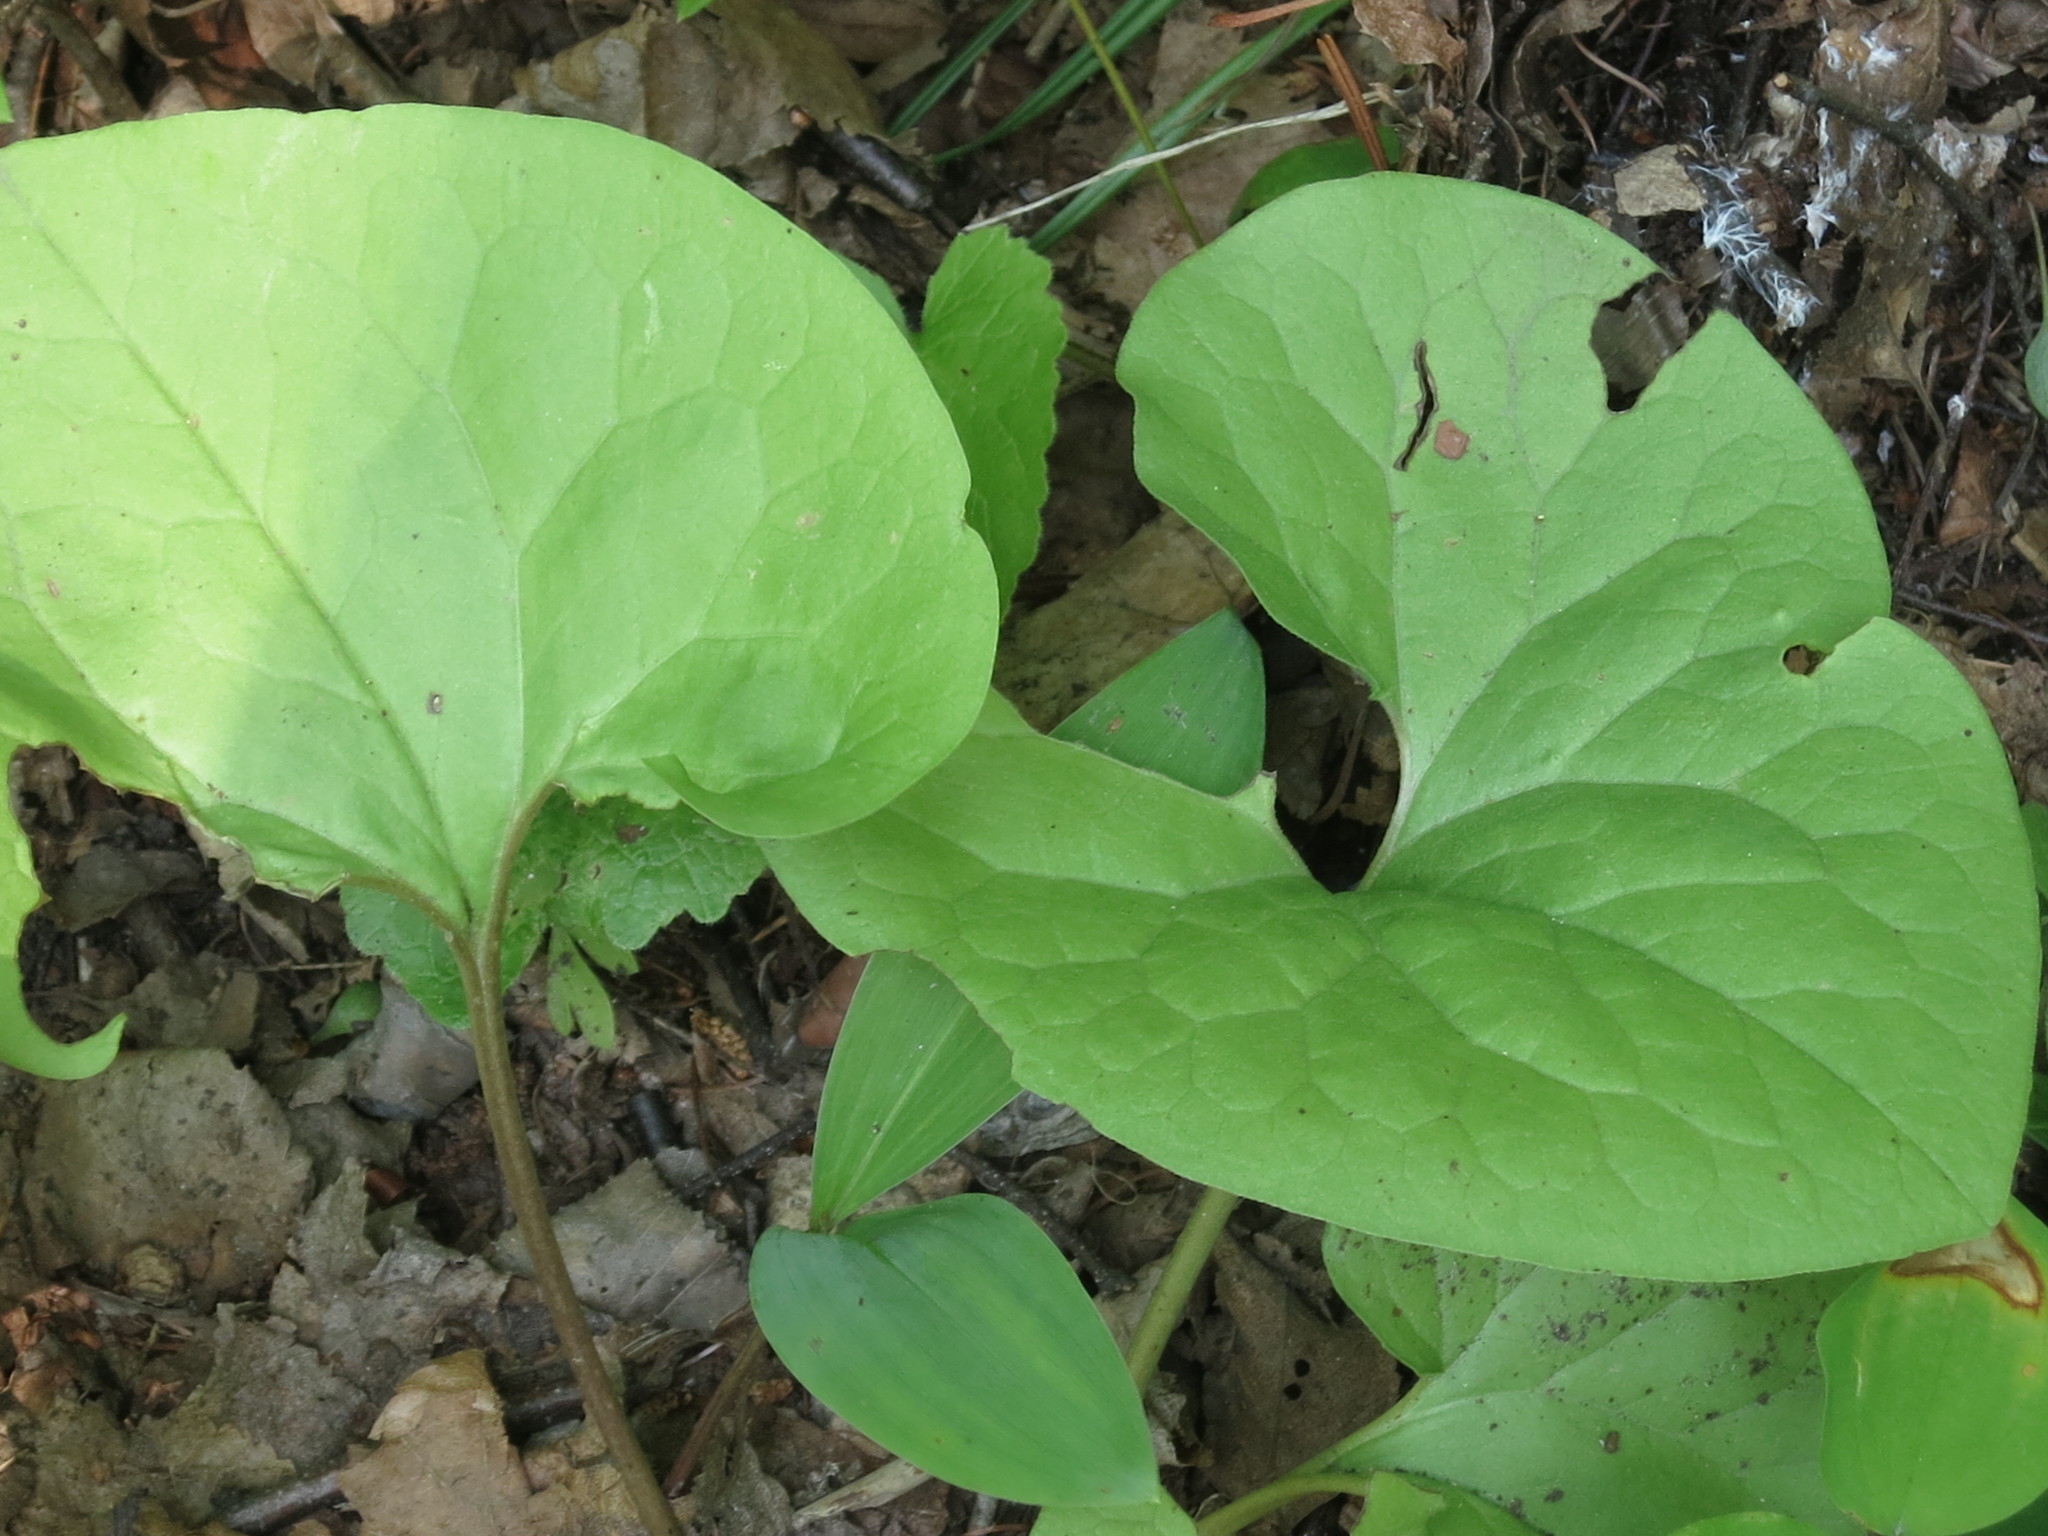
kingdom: Plantae
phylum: Tracheophyta
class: Magnoliopsida
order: Piperales
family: Aristolochiaceae
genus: Asarum
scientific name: Asarum sieboldii
